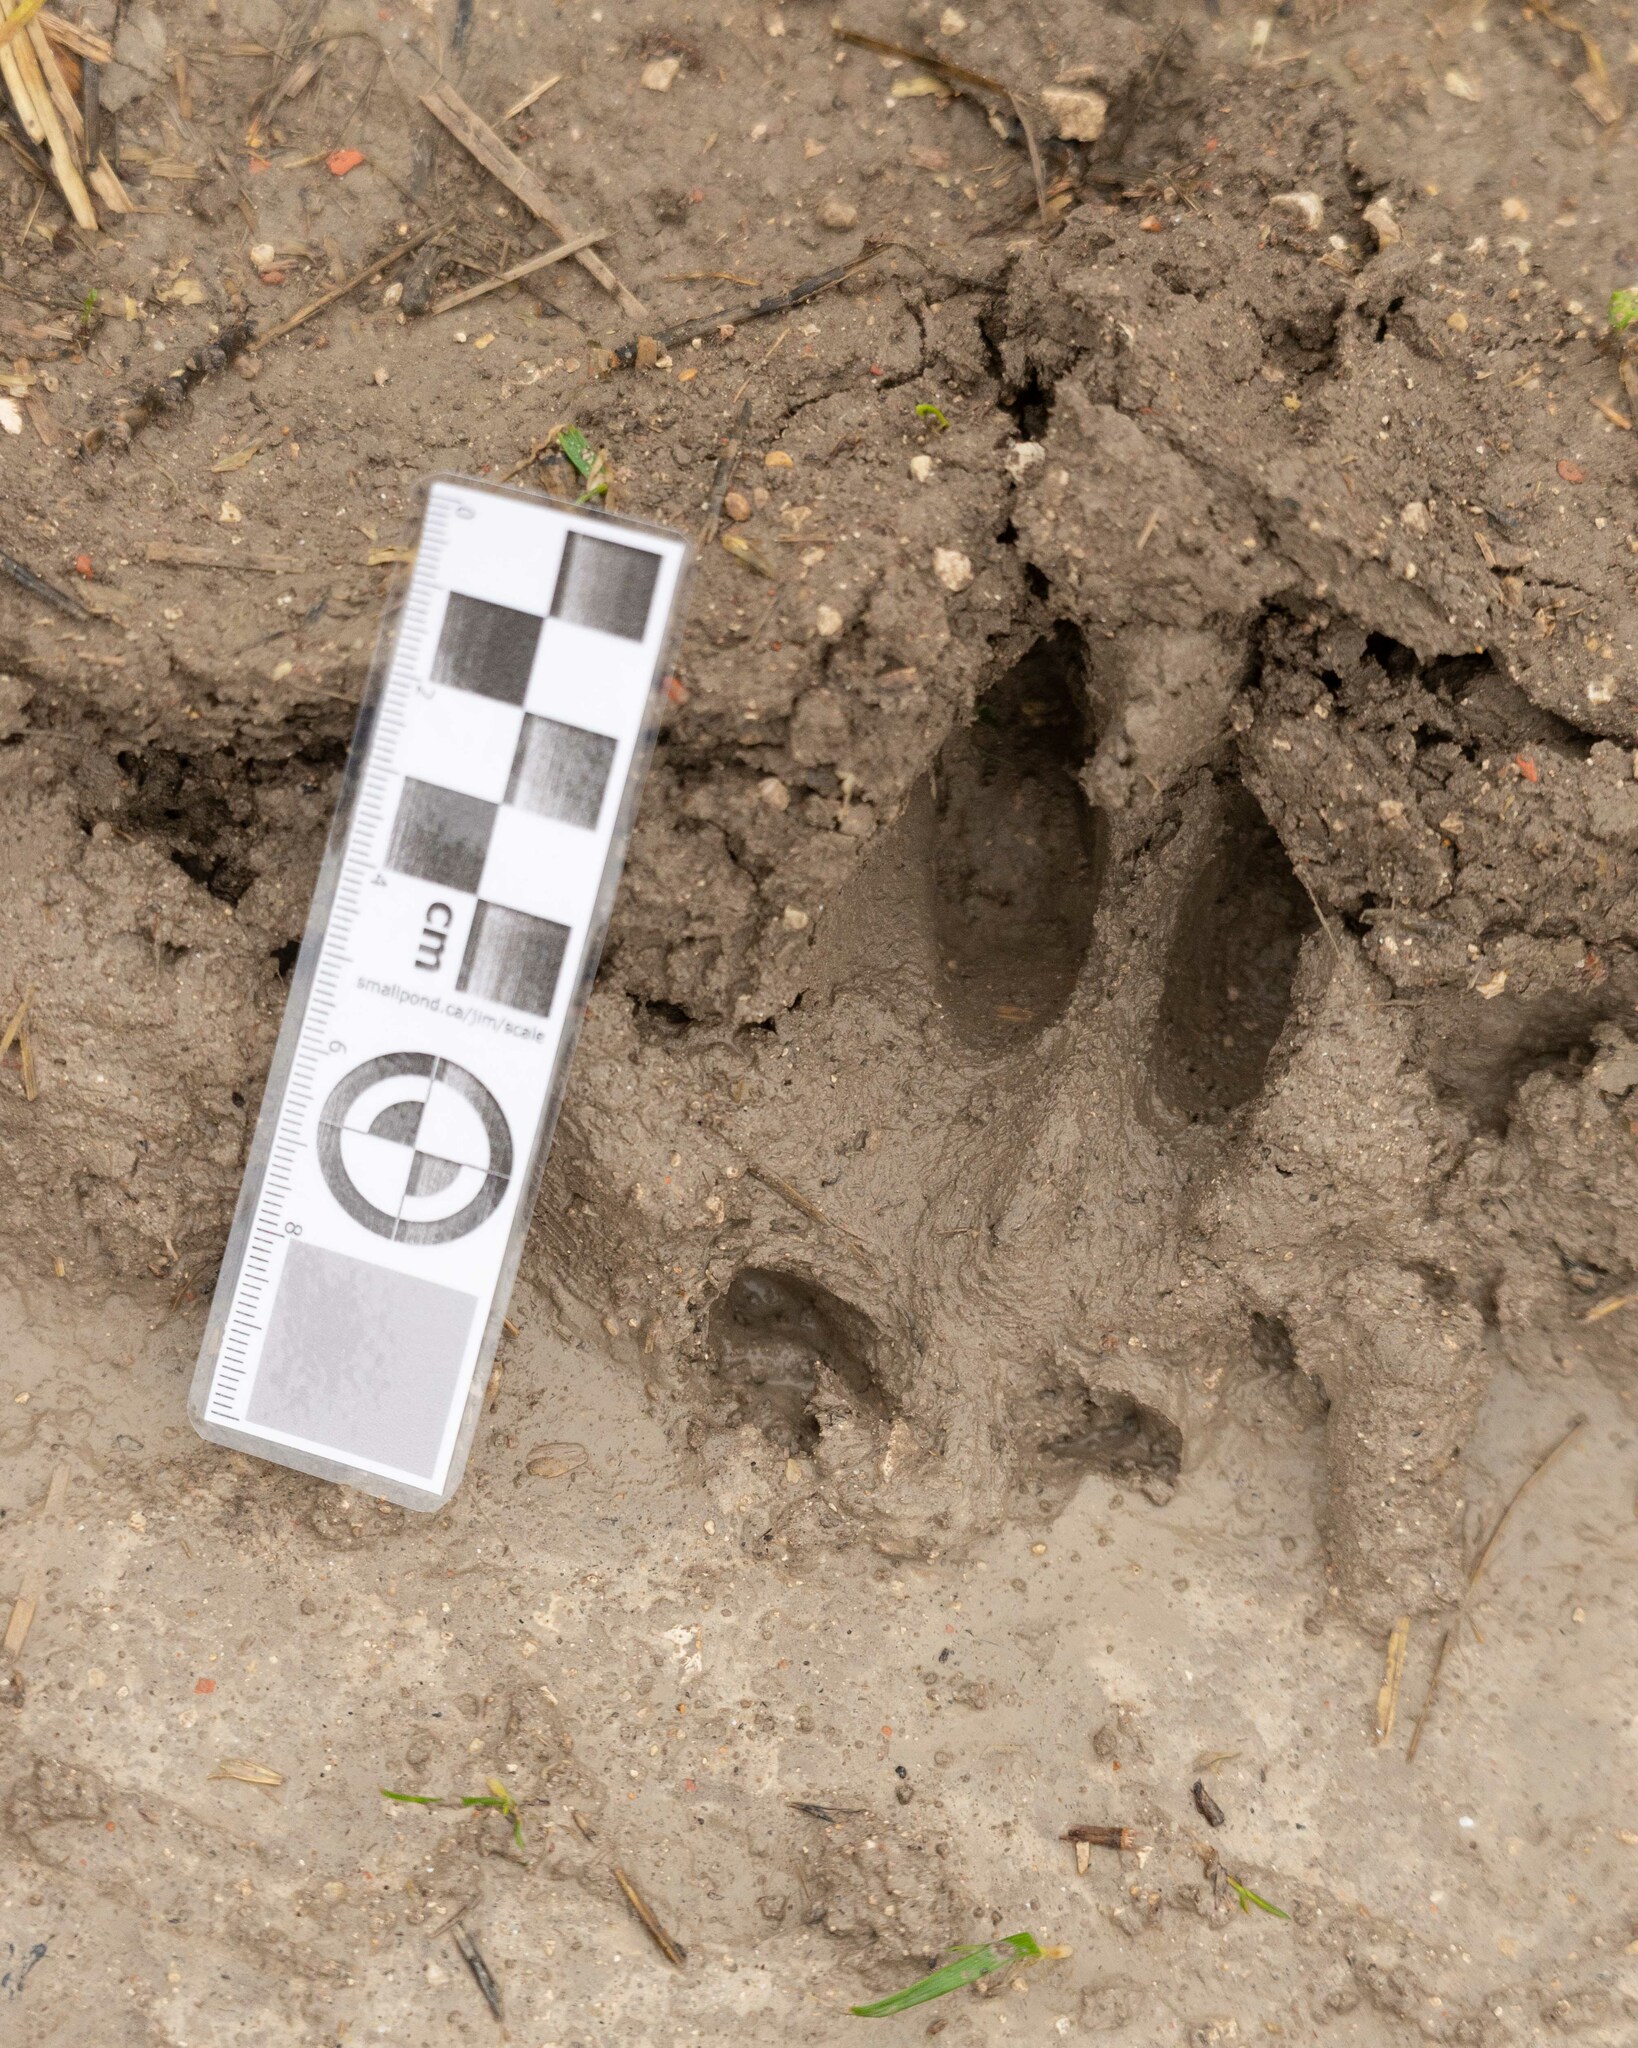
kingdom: Animalia
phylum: Chordata
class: Mammalia
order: Artiodactyla
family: Cervidae
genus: Capreolus
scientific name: Capreolus capreolus
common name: Western roe deer
